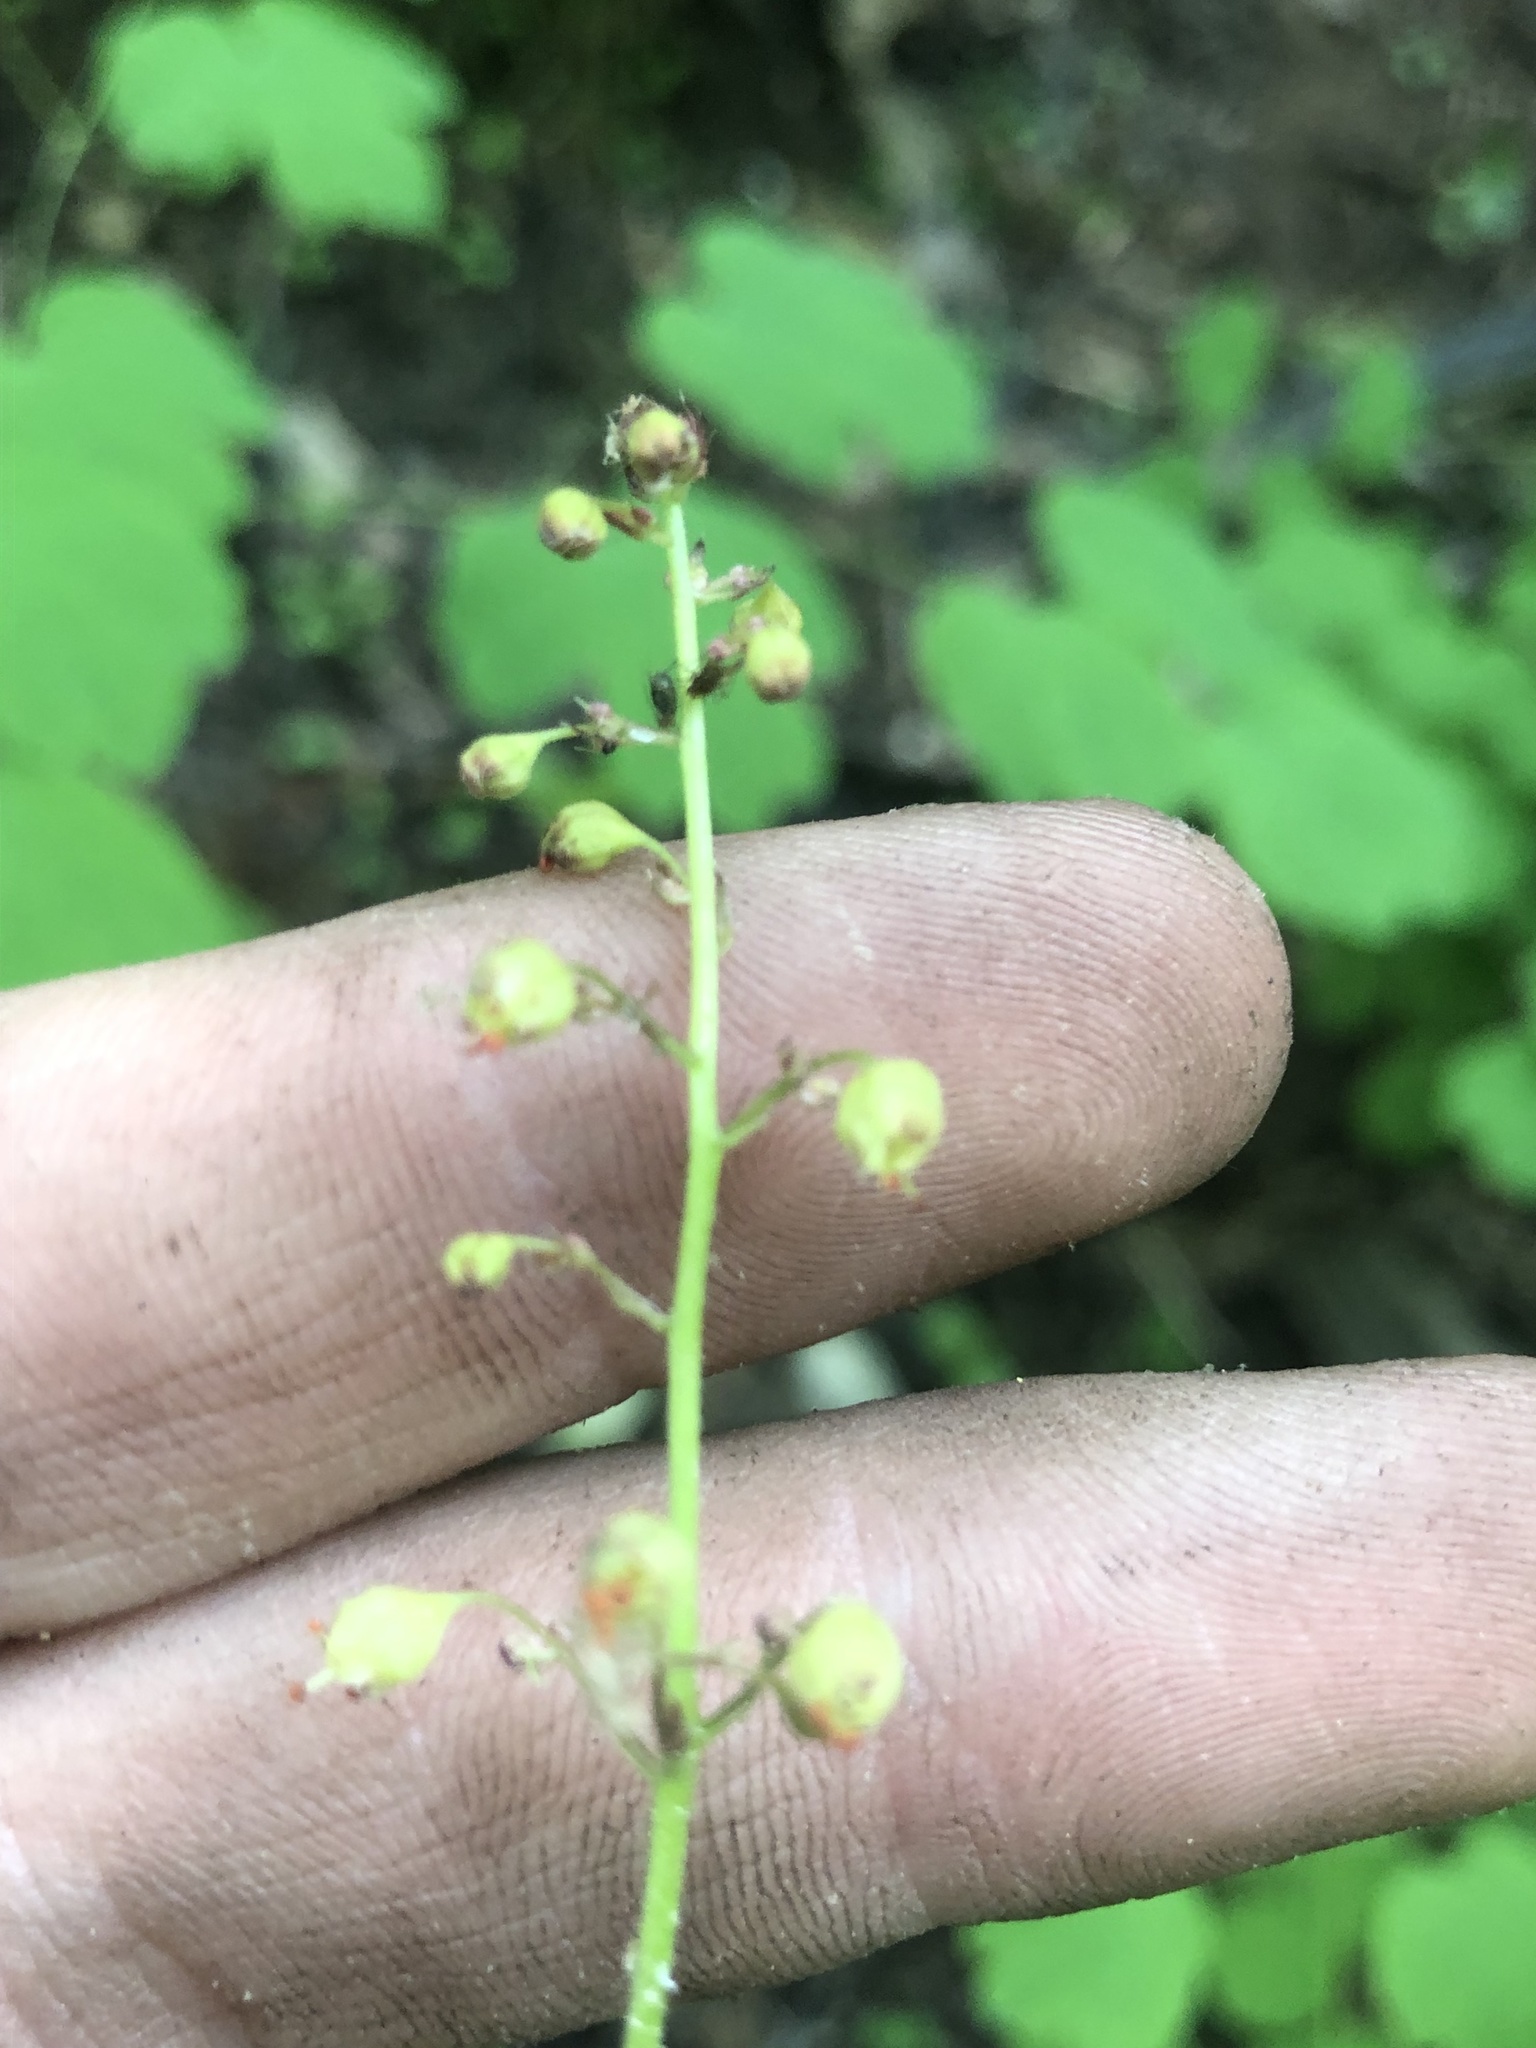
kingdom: Plantae
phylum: Tracheophyta
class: Magnoliopsida
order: Saxifragales
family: Saxifragaceae
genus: Heuchera
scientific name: Heuchera caroliniana
